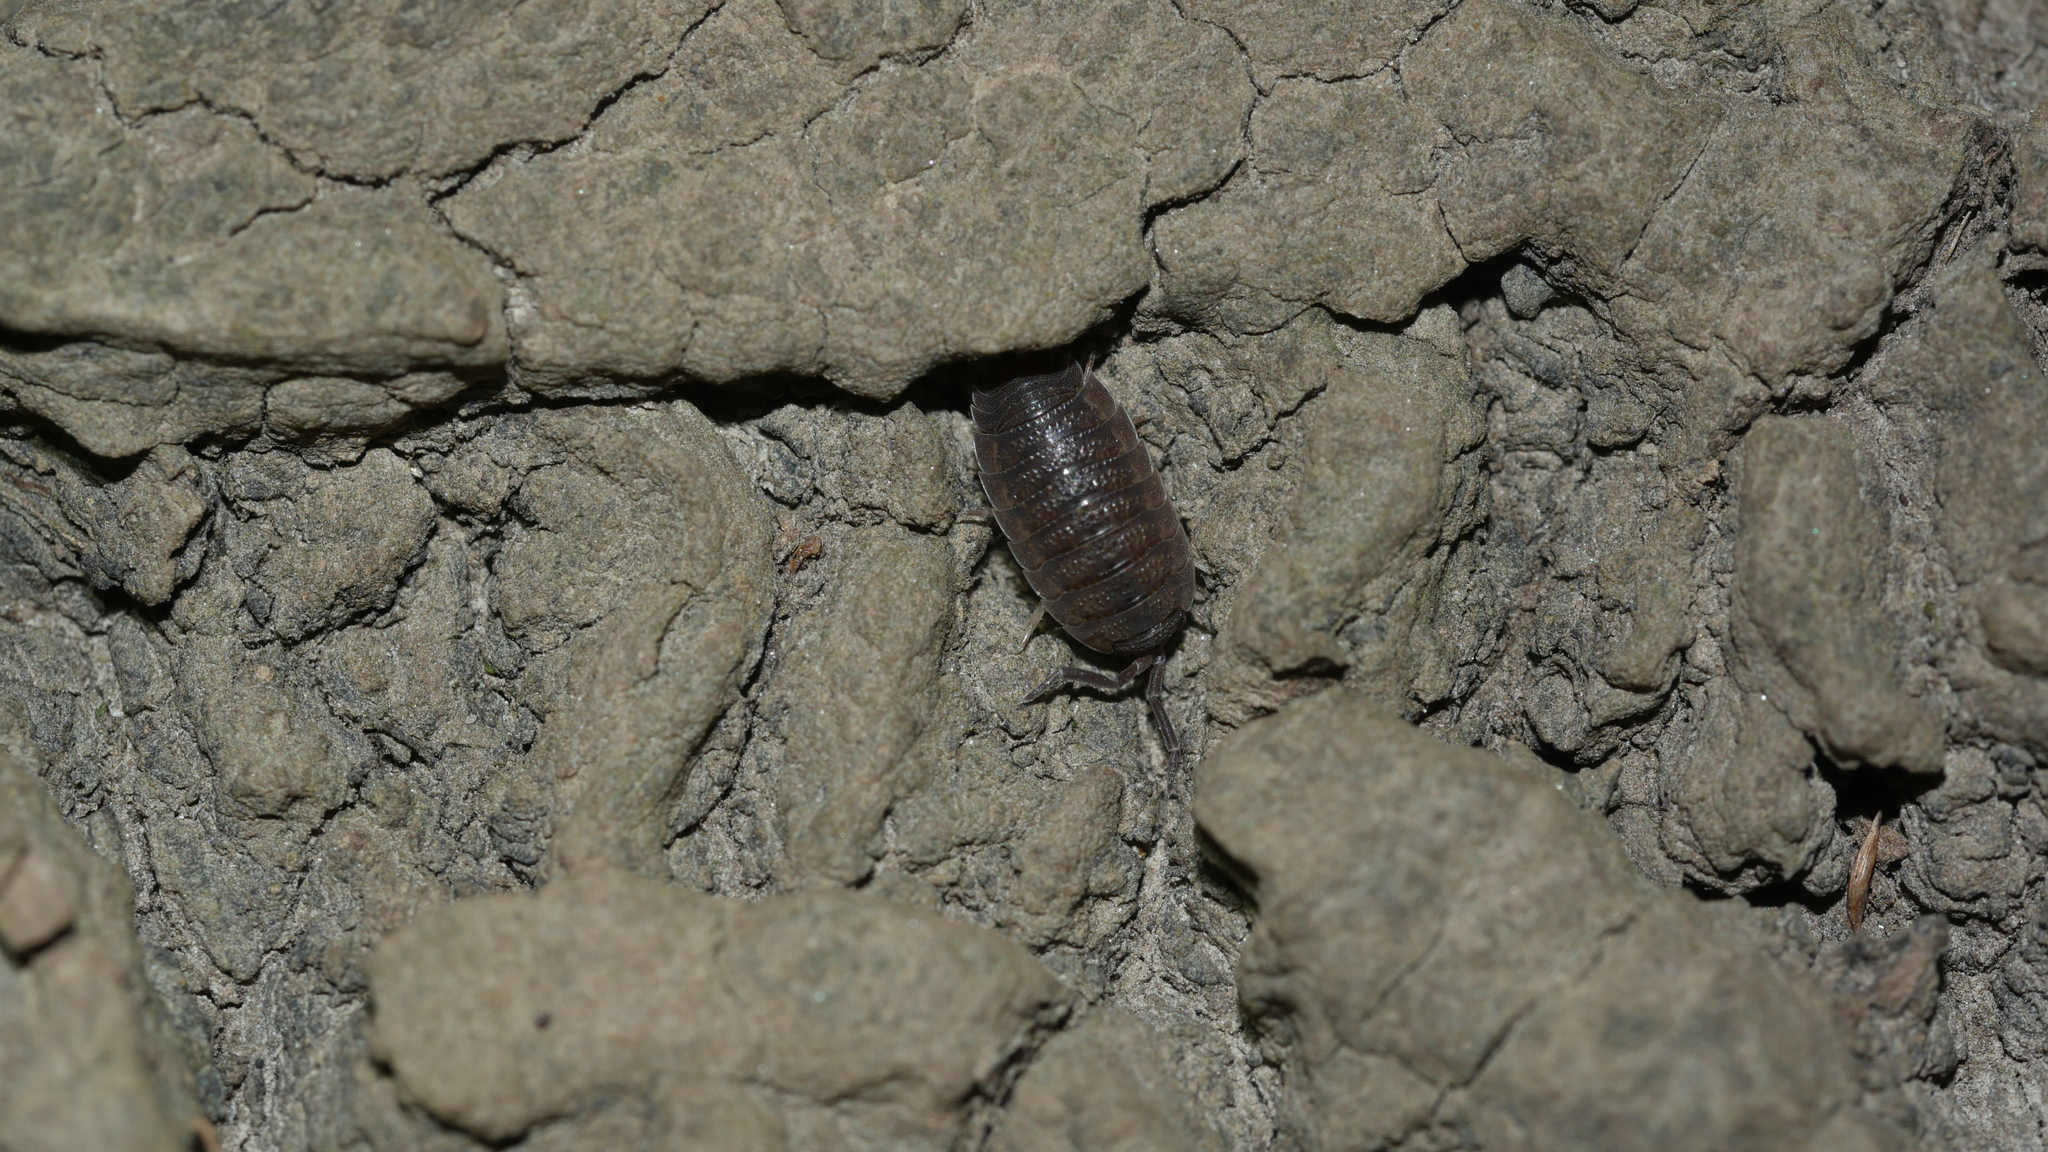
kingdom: Animalia
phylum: Arthropoda
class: Malacostraca
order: Isopoda
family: Porcellionidae
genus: Porcellio
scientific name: Porcellio scaber
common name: Common rough woodlouse
